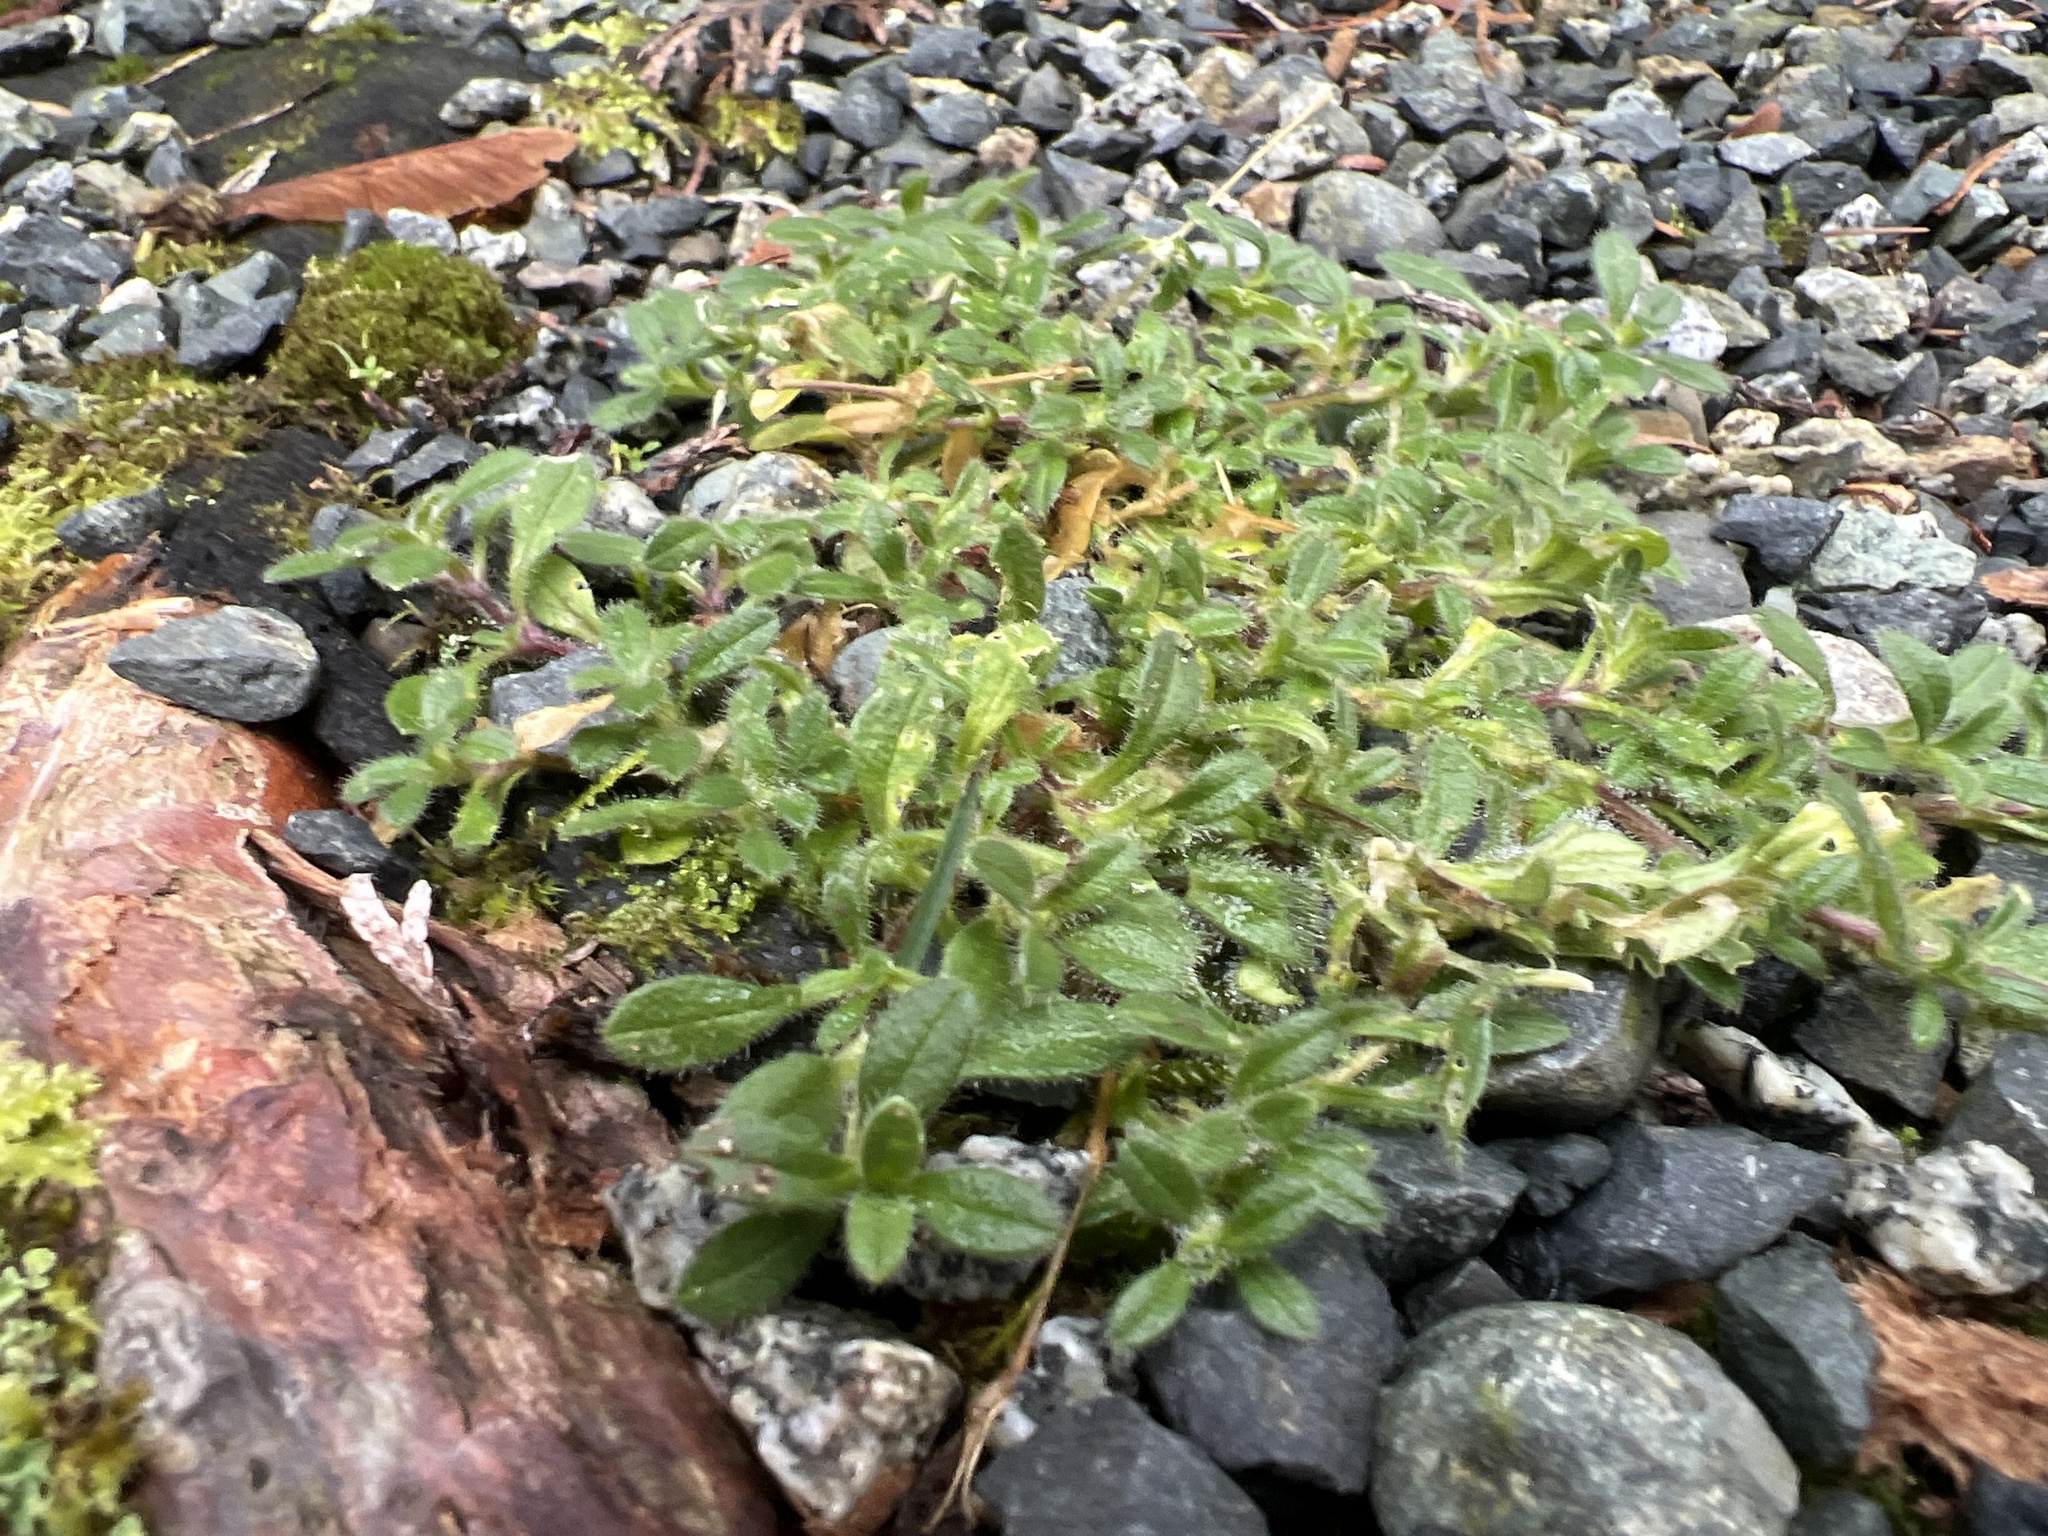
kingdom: Plantae
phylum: Tracheophyta
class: Magnoliopsida
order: Caryophyllales
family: Caryophyllaceae
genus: Cerastium
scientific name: Cerastium fontanum
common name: Common mouse-ear
